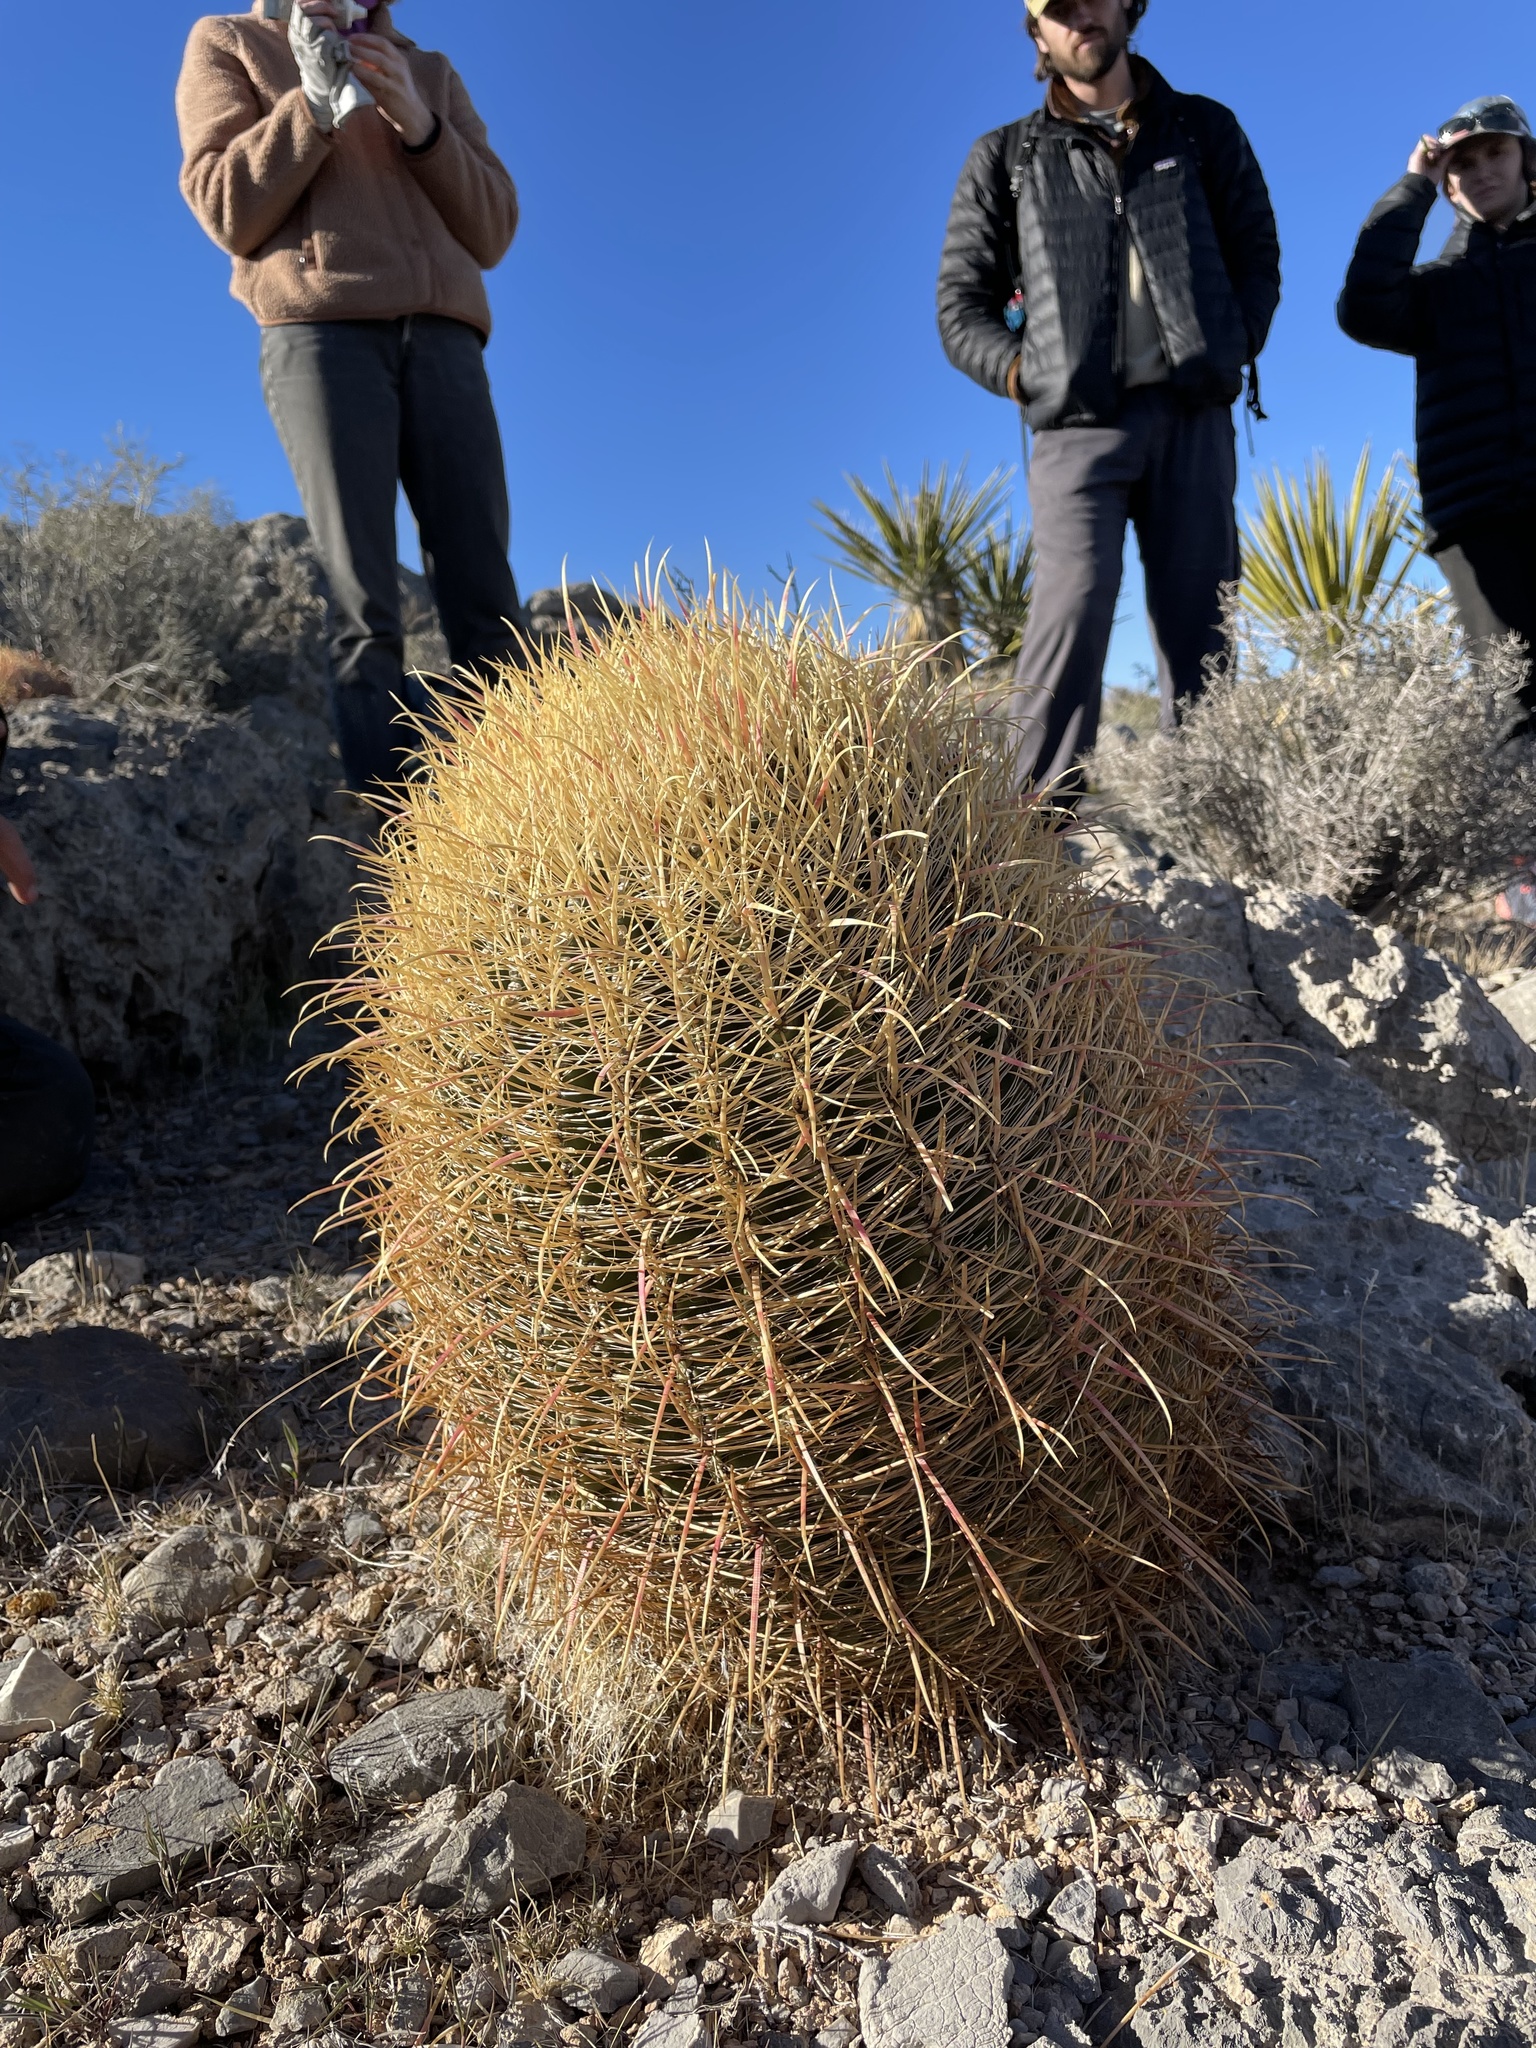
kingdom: Plantae
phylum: Tracheophyta
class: Magnoliopsida
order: Caryophyllales
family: Cactaceae
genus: Ferocactus
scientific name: Ferocactus cylindraceus
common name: California barrel cactus
